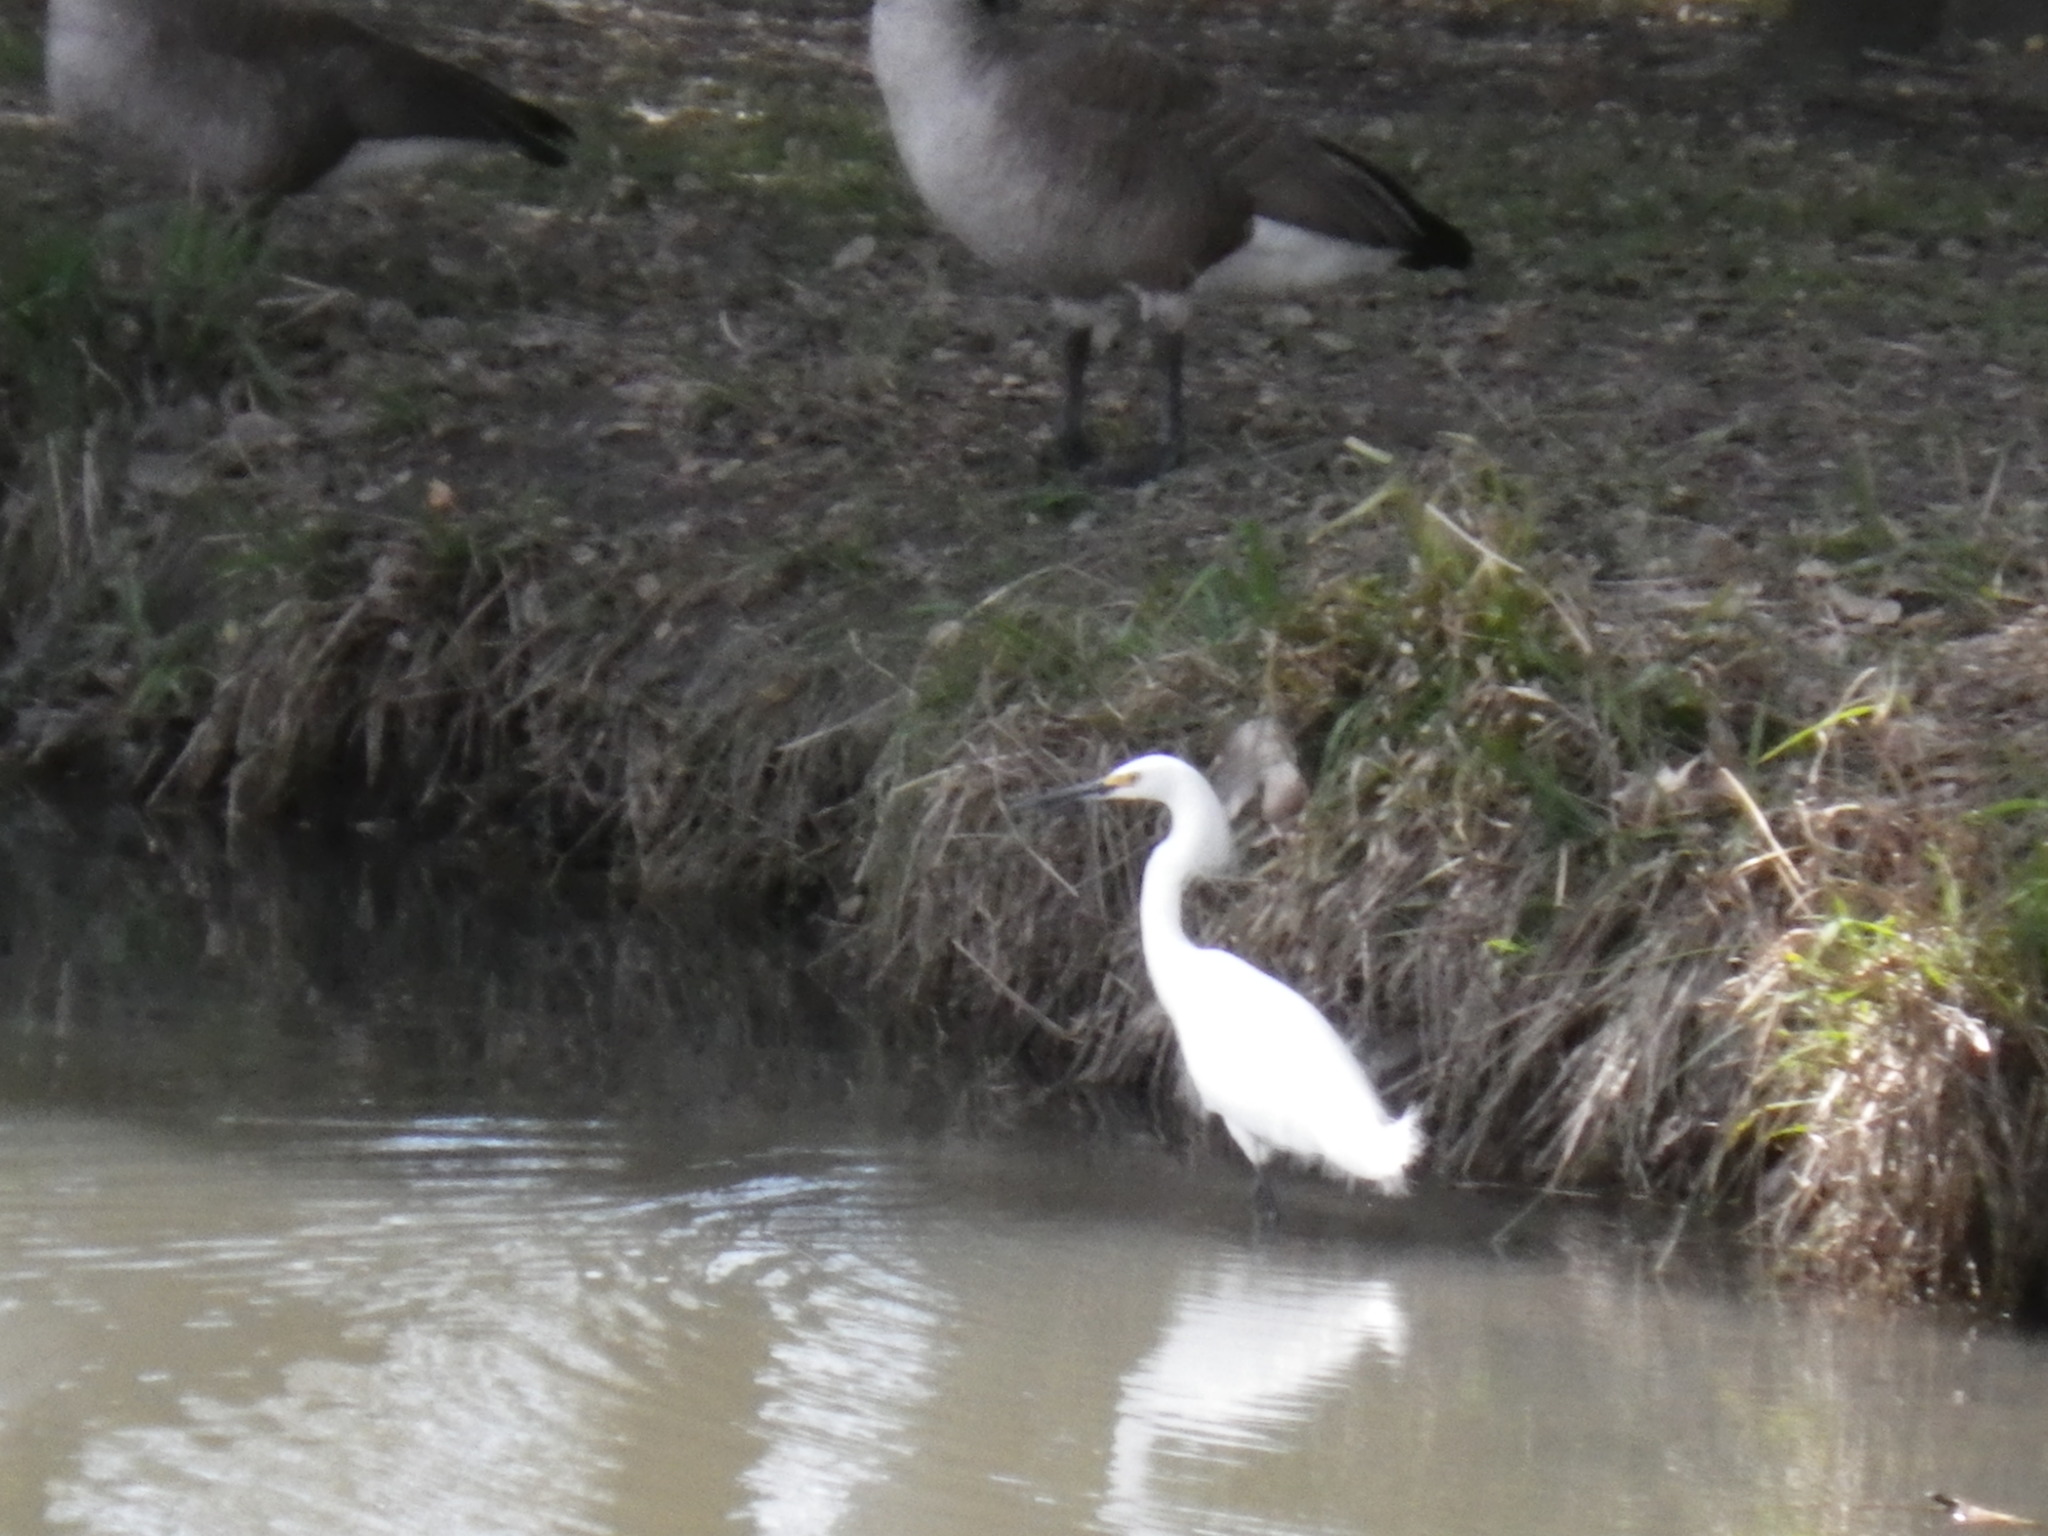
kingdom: Animalia
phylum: Chordata
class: Aves
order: Pelecaniformes
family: Ardeidae
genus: Egretta
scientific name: Egretta thula
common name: Snowy egret
